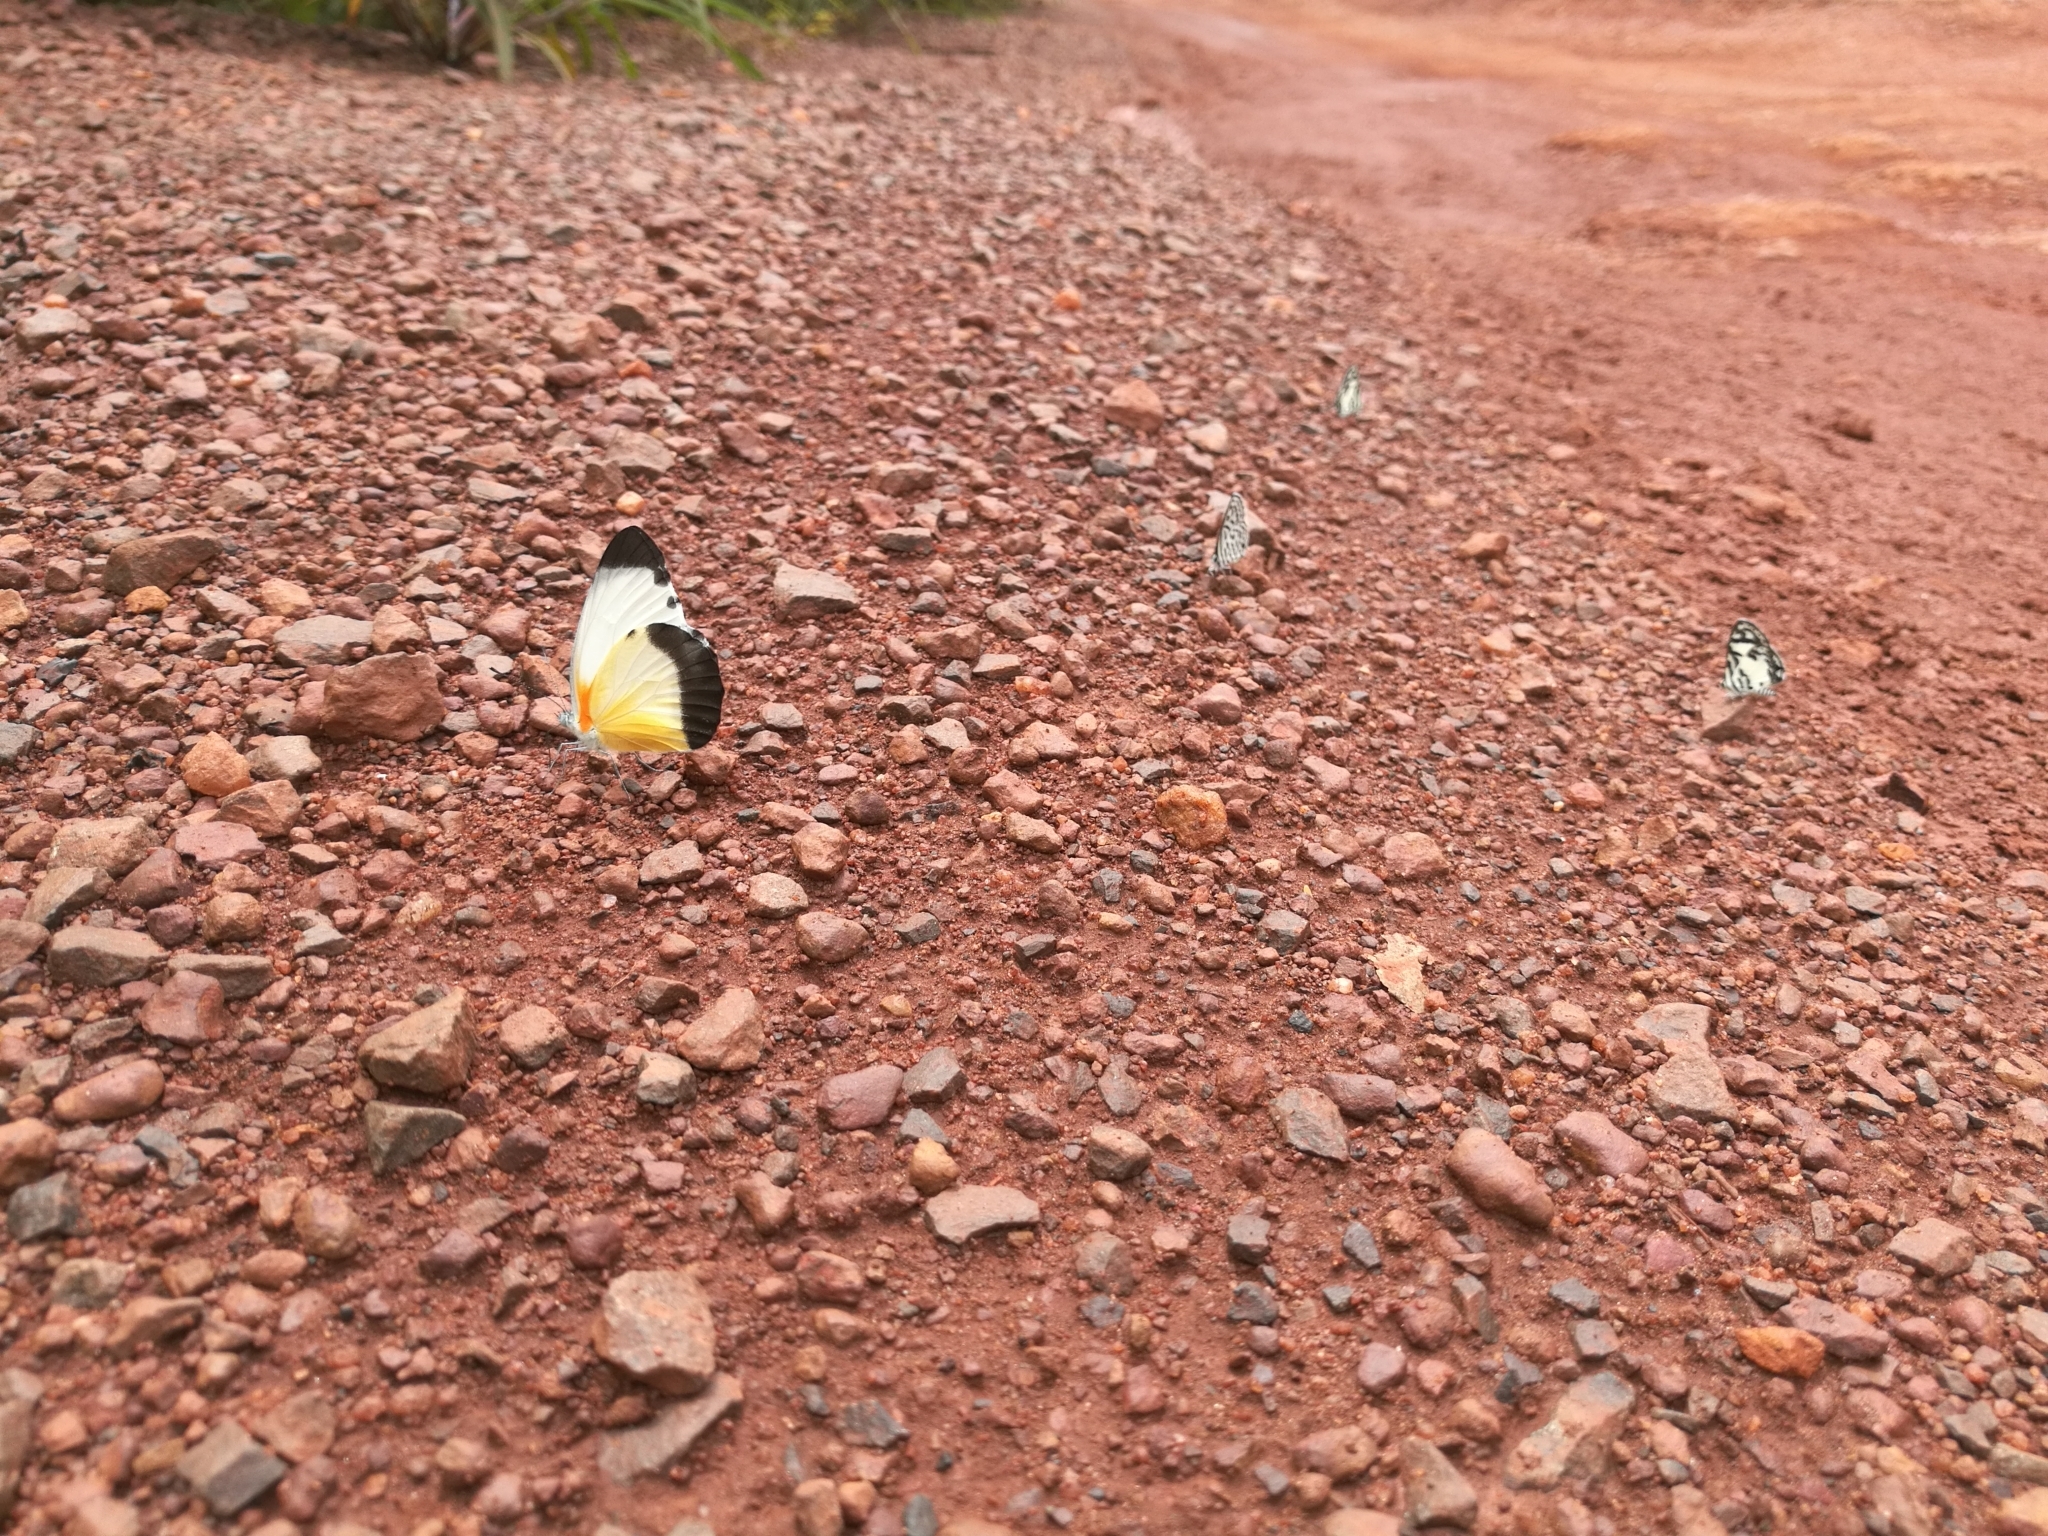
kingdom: Animalia
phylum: Arthropoda
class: Insecta
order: Lepidoptera
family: Pieridae
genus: Mylothris
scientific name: Mylothris chloris
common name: Western dotted border
